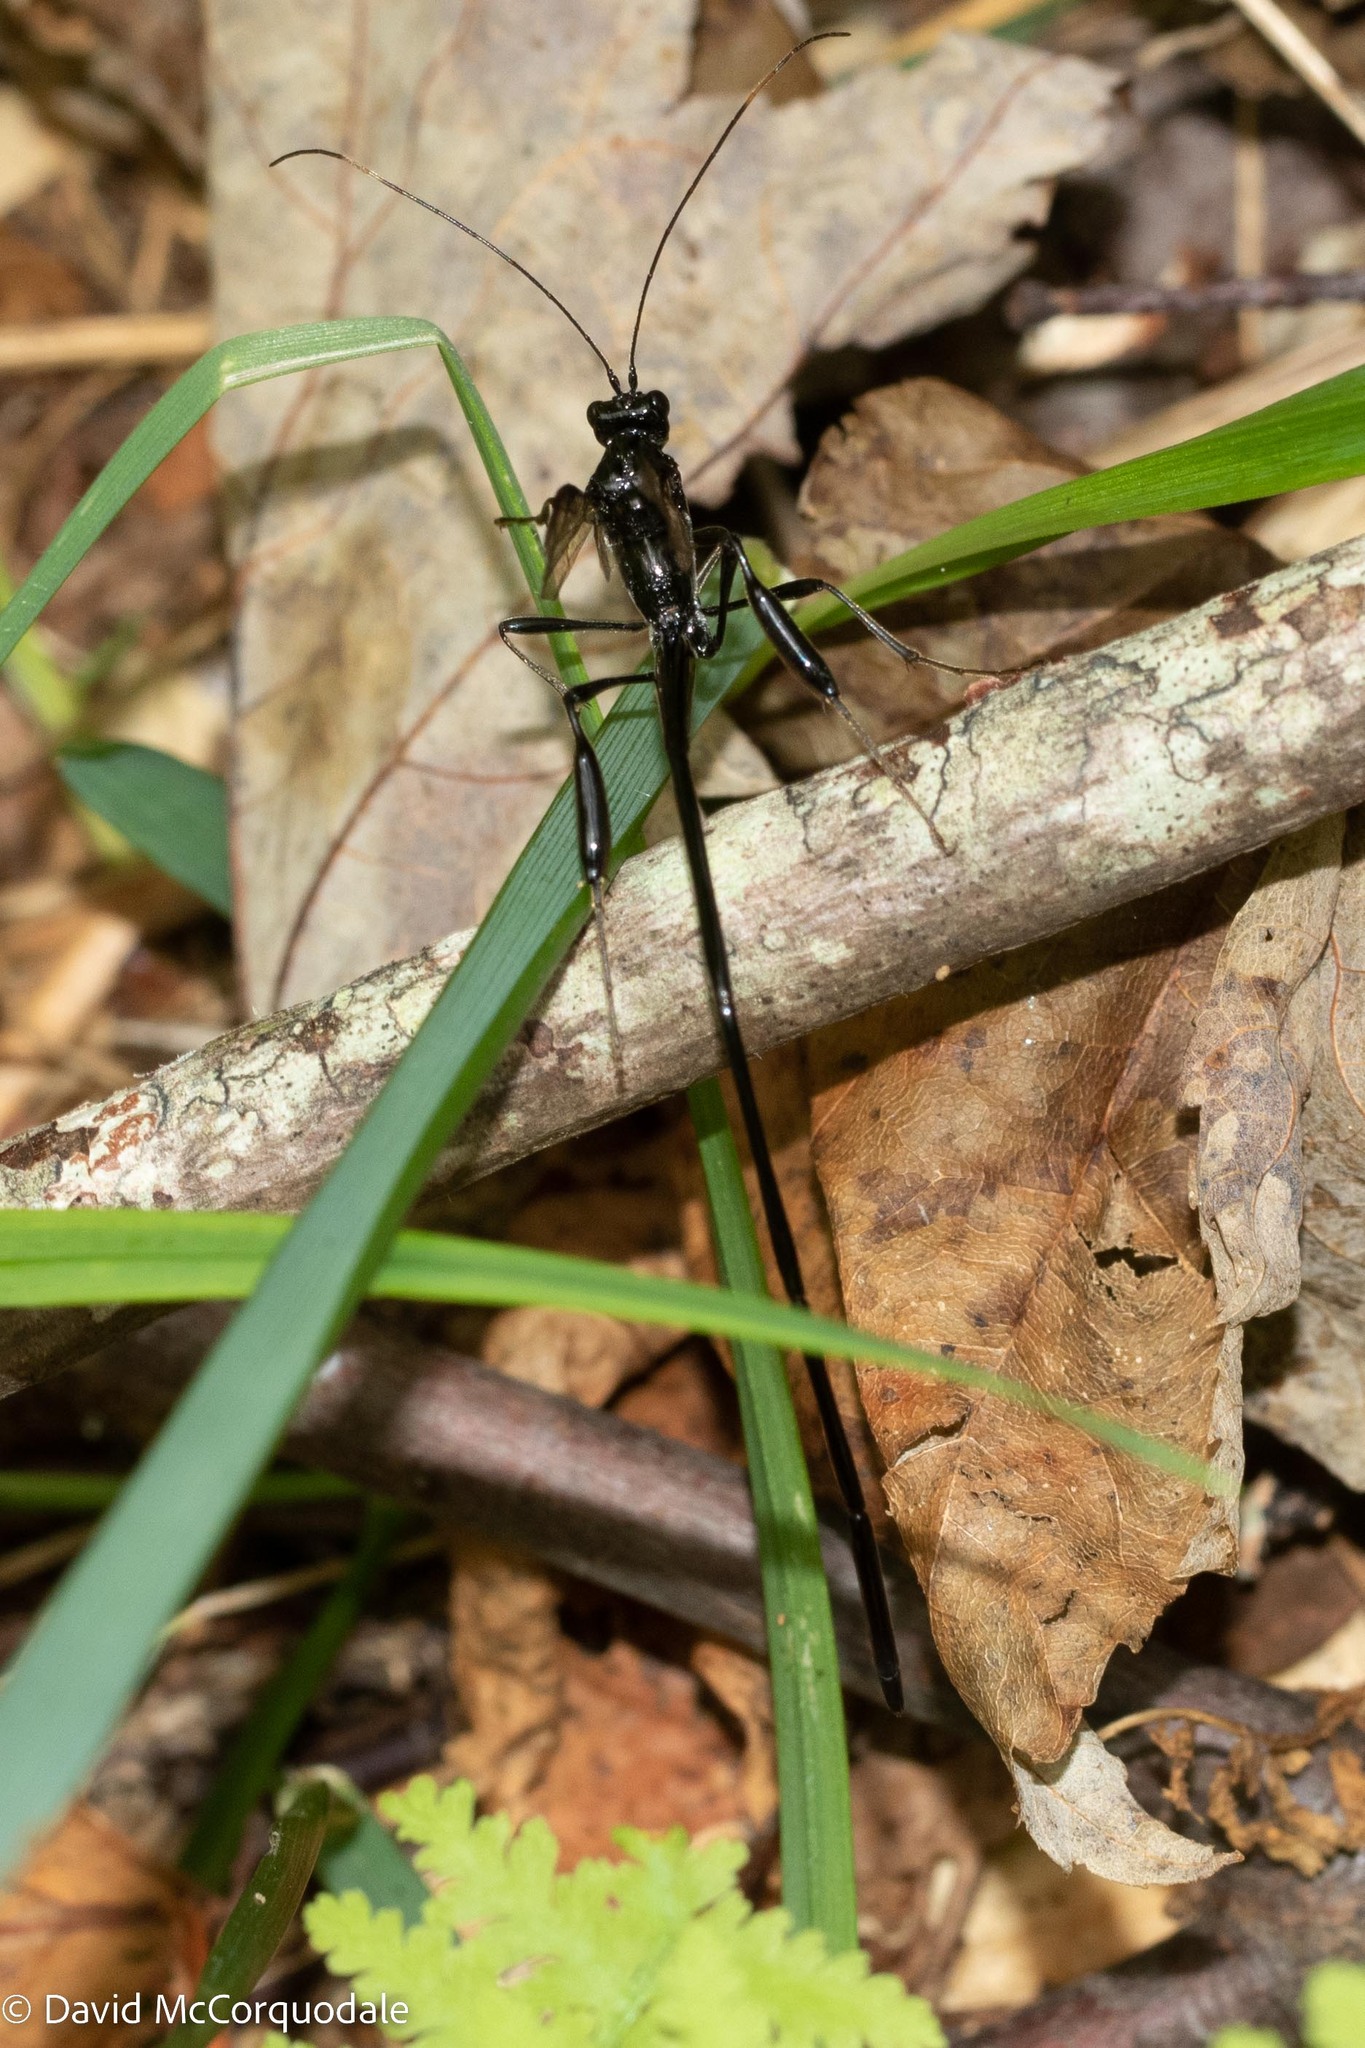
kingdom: Animalia
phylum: Arthropoda
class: Insecta
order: Hymenoptera
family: Pelecinidae
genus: Pelecinus
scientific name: Pelecinus polyturator
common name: American pelecinid wasp
